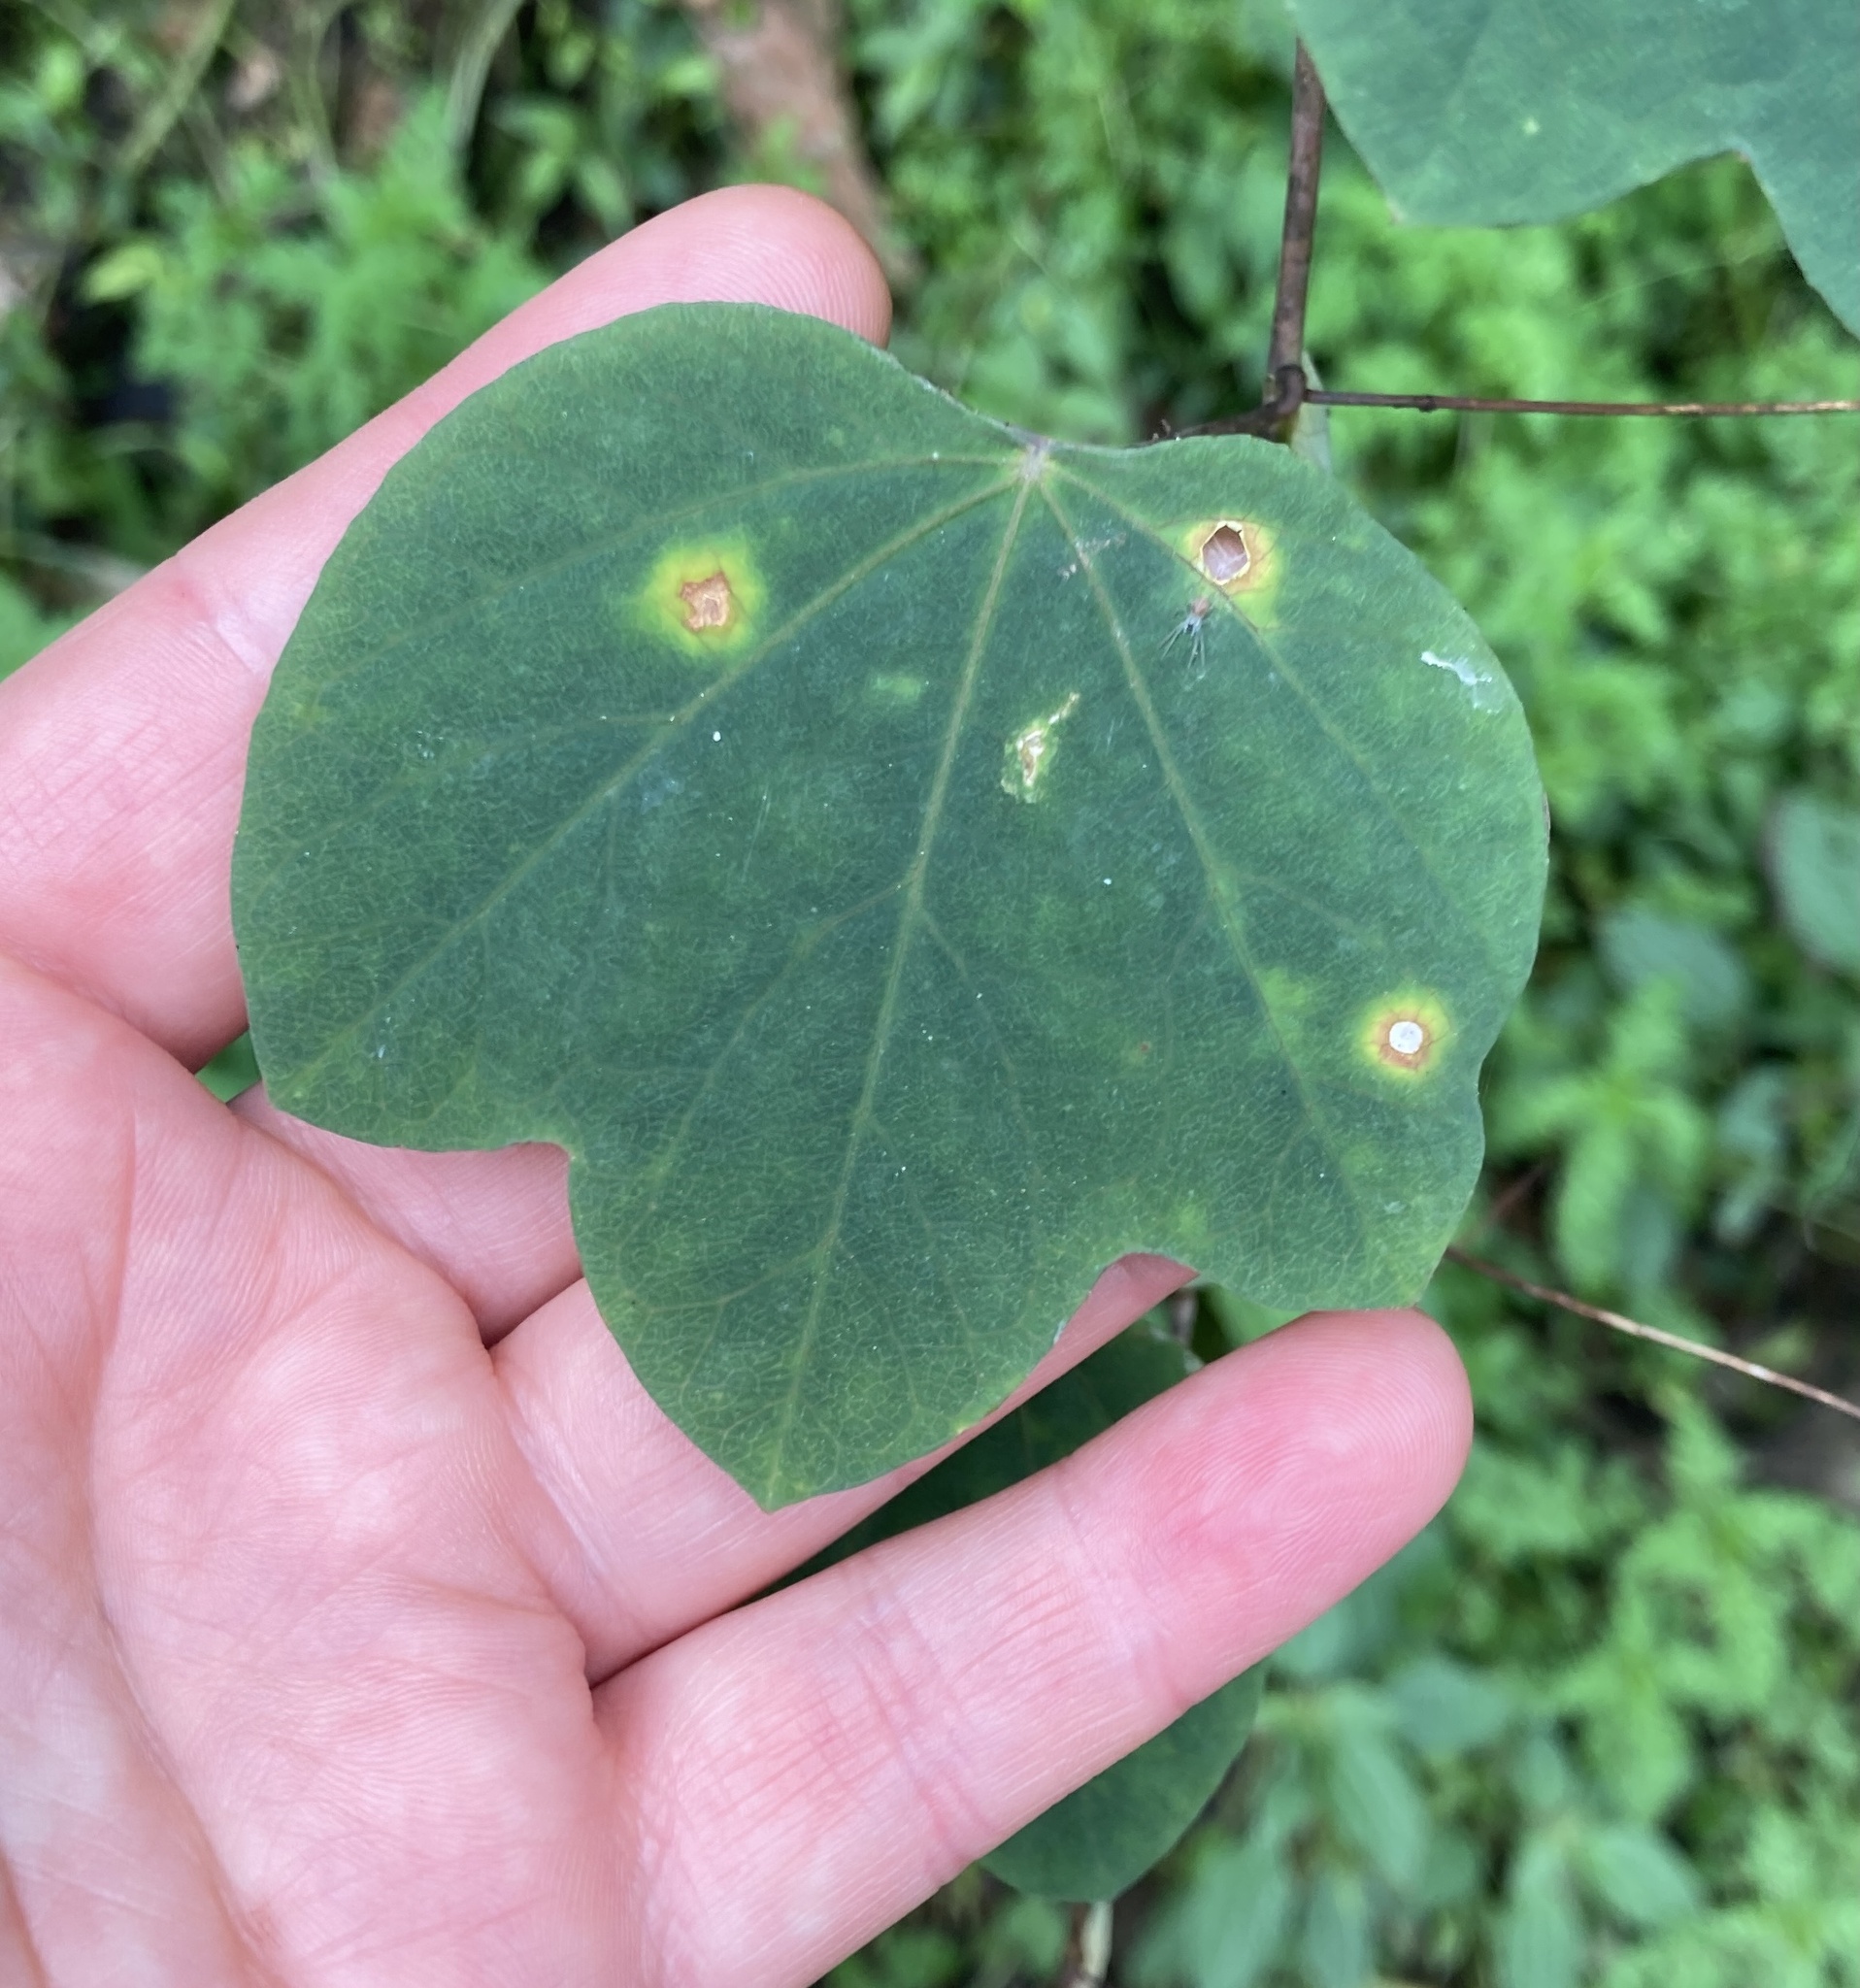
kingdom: Plantae
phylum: Tracheophyta
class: Magnoliopsida
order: Malpighiales
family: Passifloraceae
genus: Passiflora
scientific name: Passiflora resticulata
